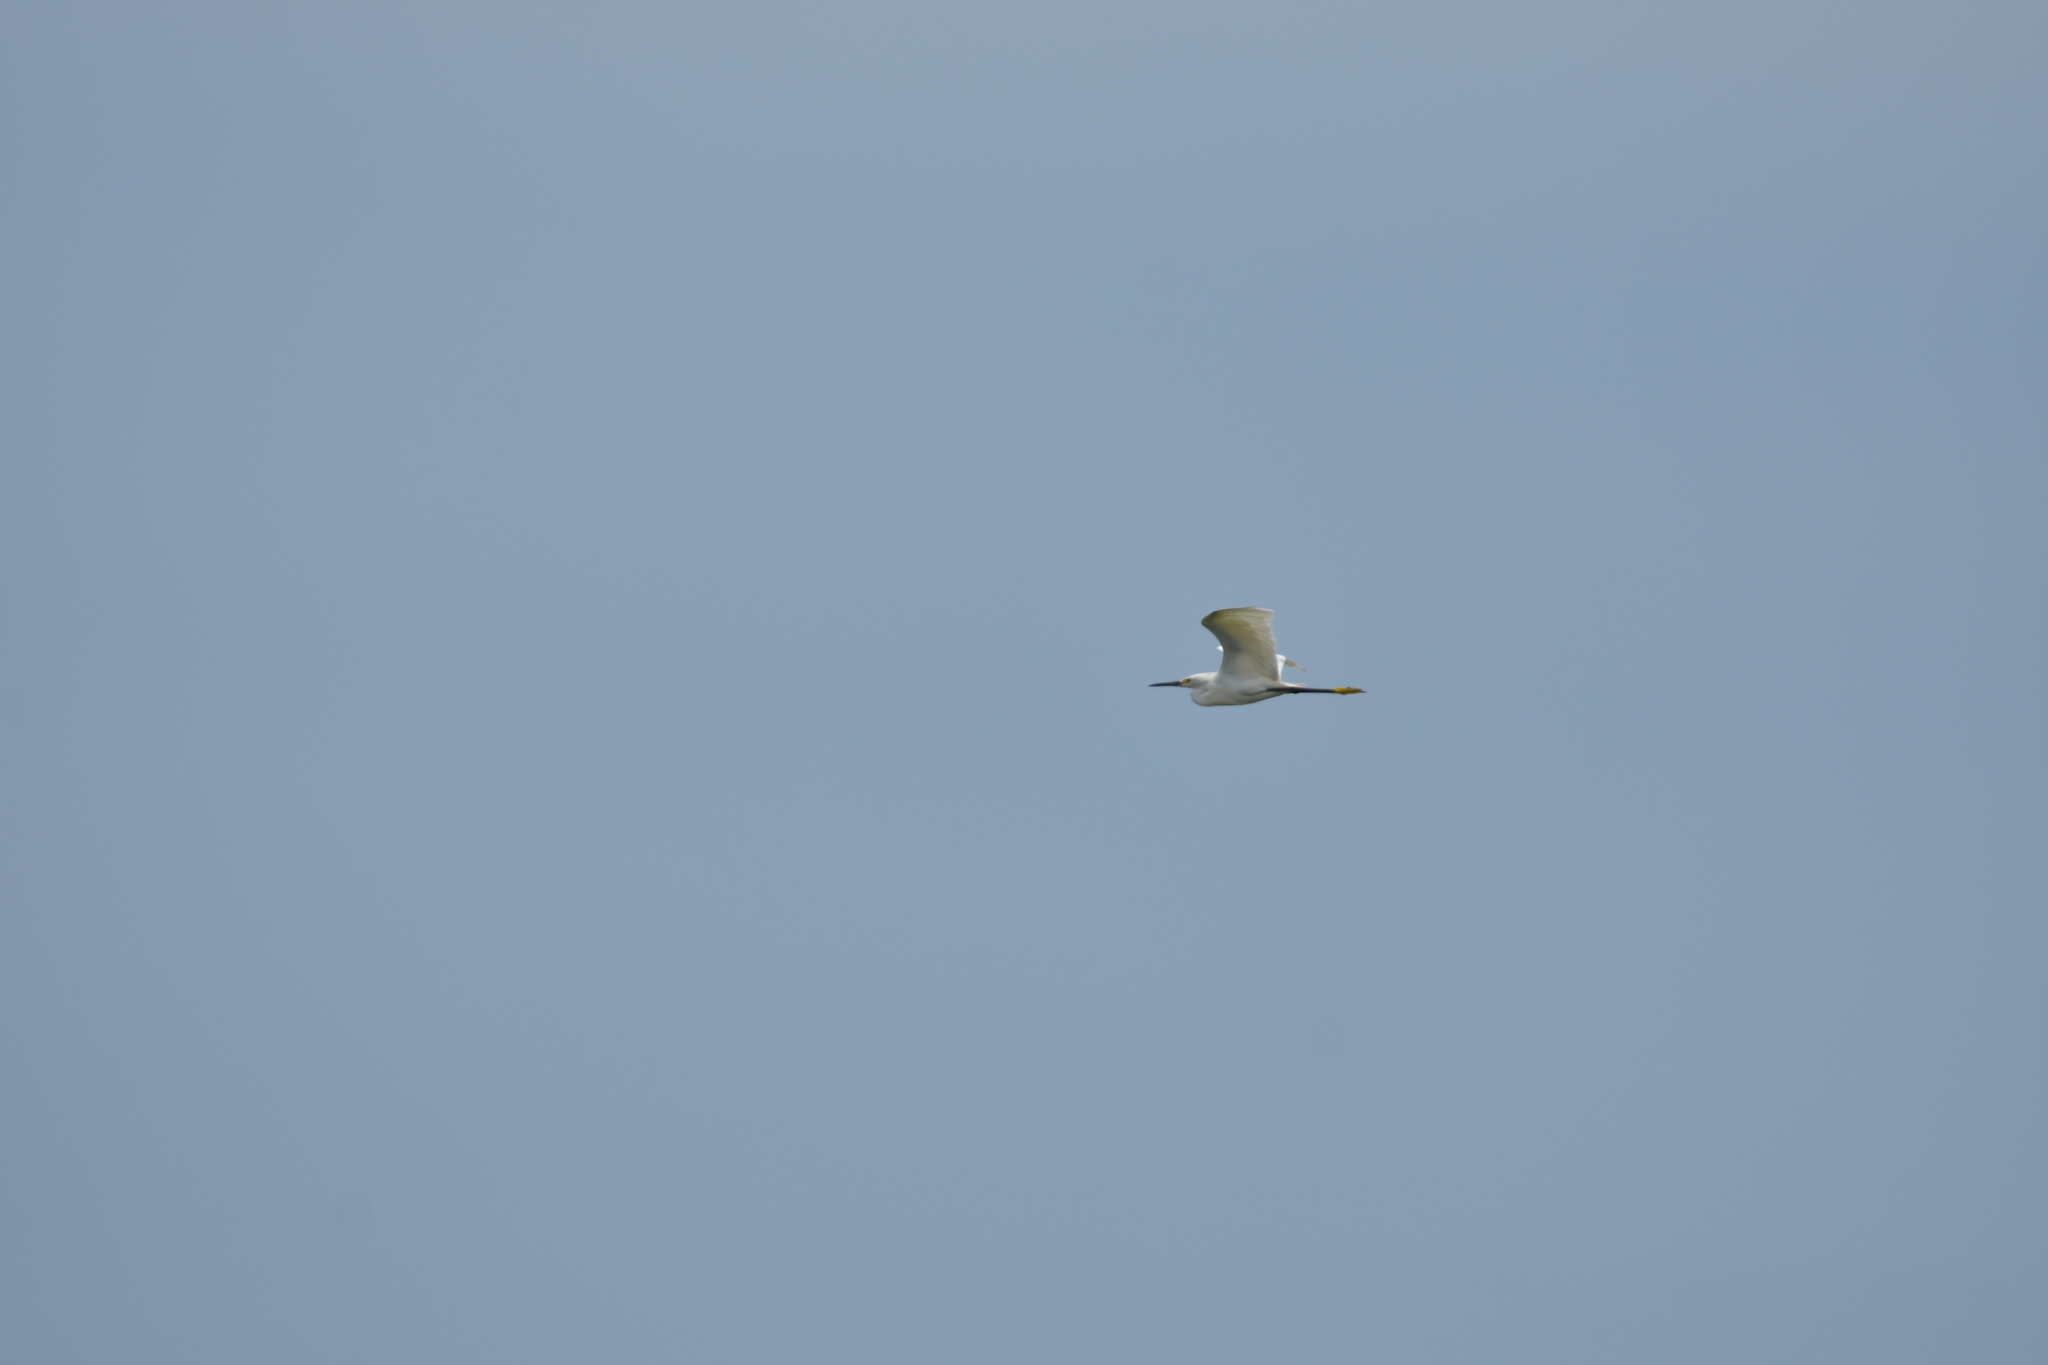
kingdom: Animalia
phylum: Chordata
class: Aves
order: Pelecaniformes
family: Ardeidae
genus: Egretta
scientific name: Egretta thula
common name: Snowy egret
